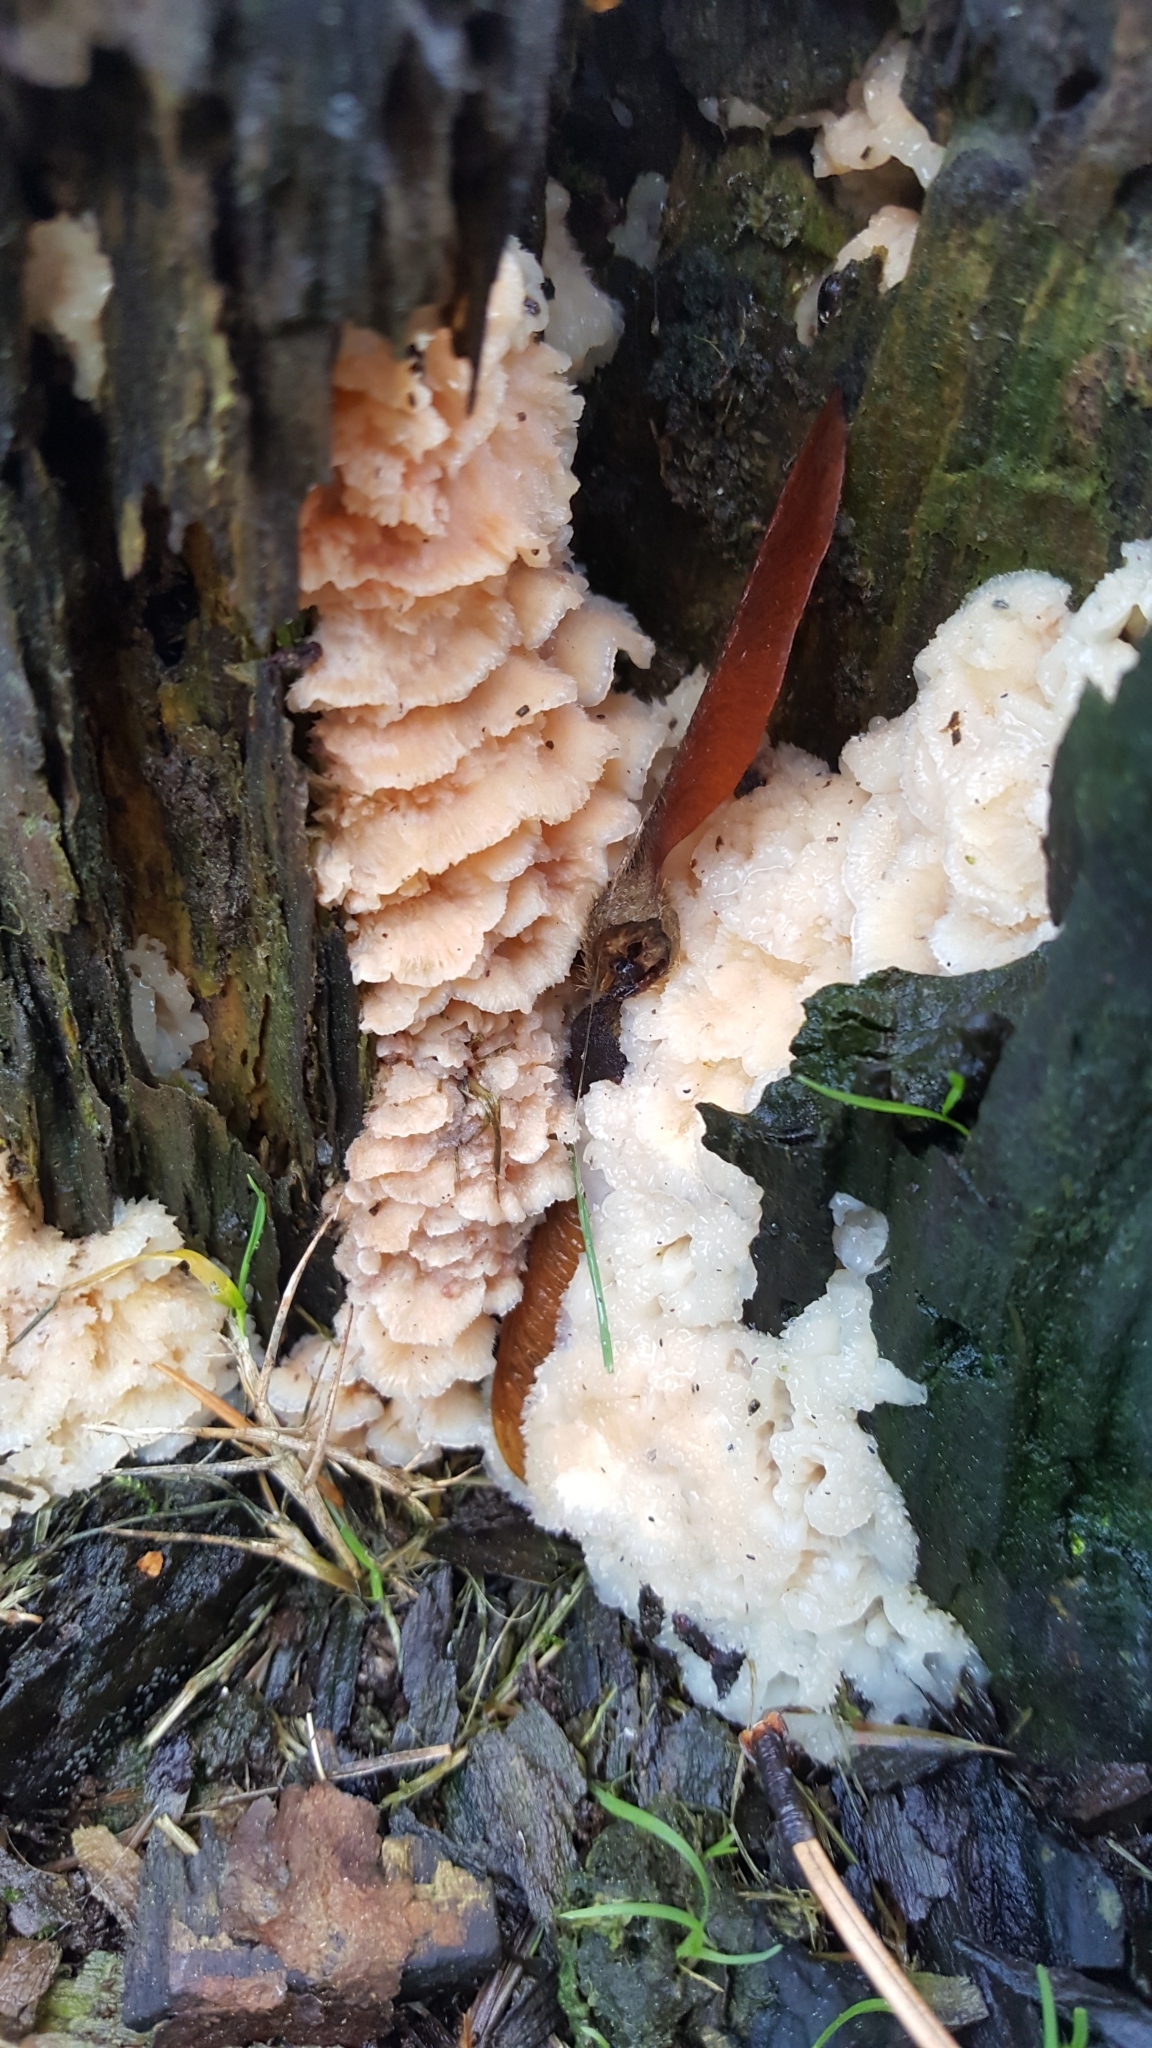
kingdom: Fungi
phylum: Basidiomycota
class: Agaricomycetes
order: Polyporales
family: Meruliaceae
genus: Phlebia
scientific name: Phlebia tremellosa
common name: Jelly rot
